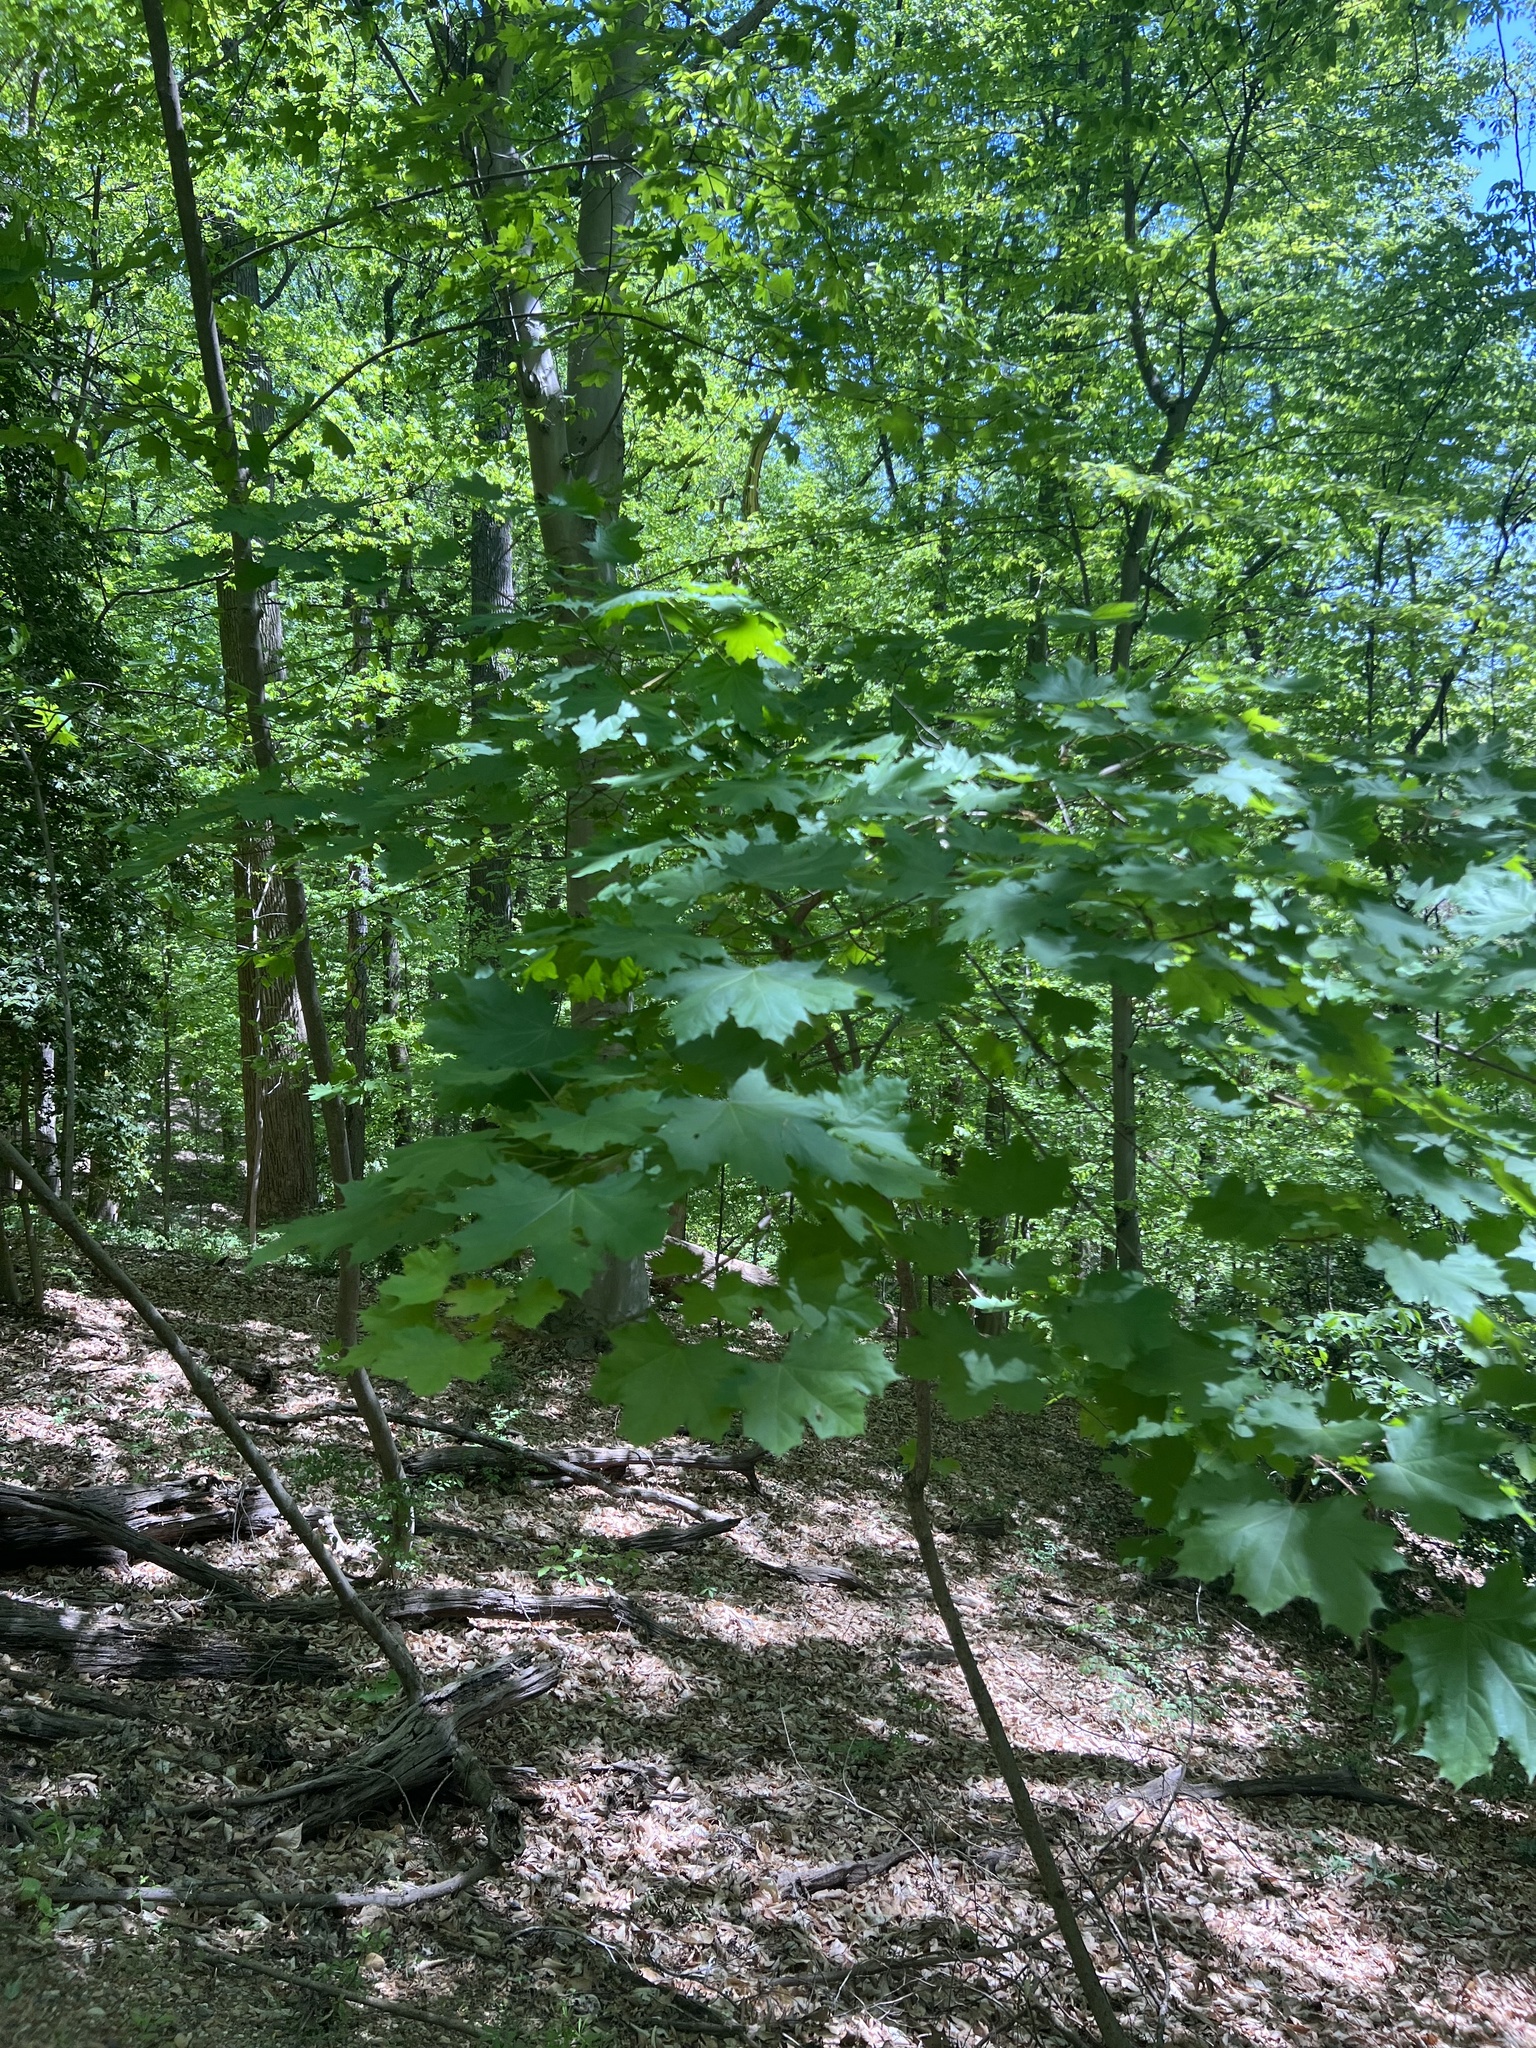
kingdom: Plantae
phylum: Tracheophyta
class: Magnoliopsida
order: Sapindales
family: Sapindaceae
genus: Acer
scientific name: Acer platanoides
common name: Norway maple
